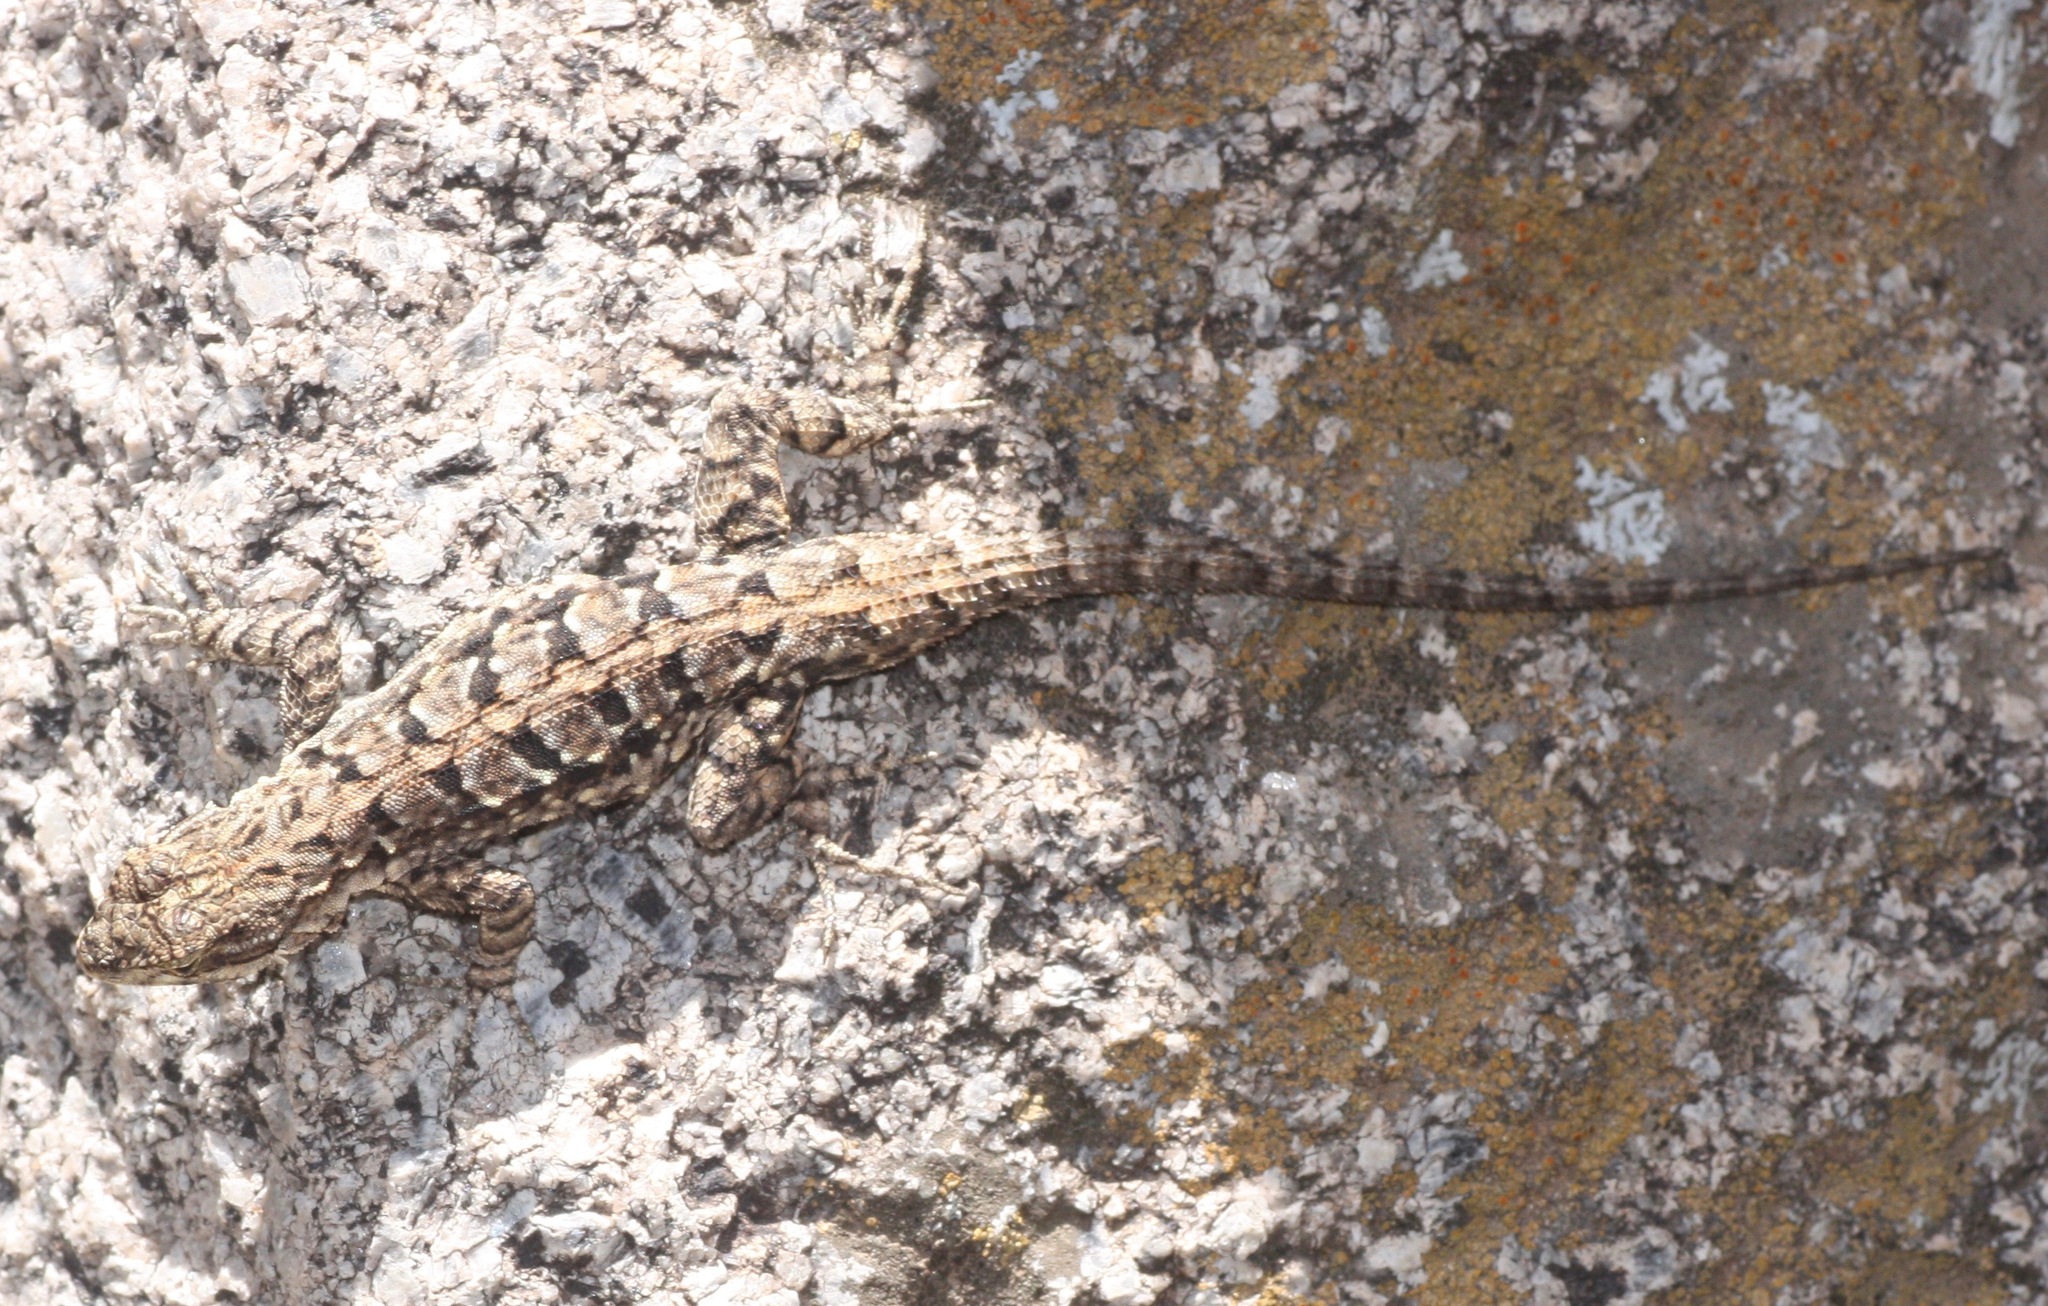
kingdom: Animalia
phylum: Chordata
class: Squamata
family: Phrynosomatidae
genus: Urosaurus
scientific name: Urosaurus ornatus
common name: Ornate tree lizard
